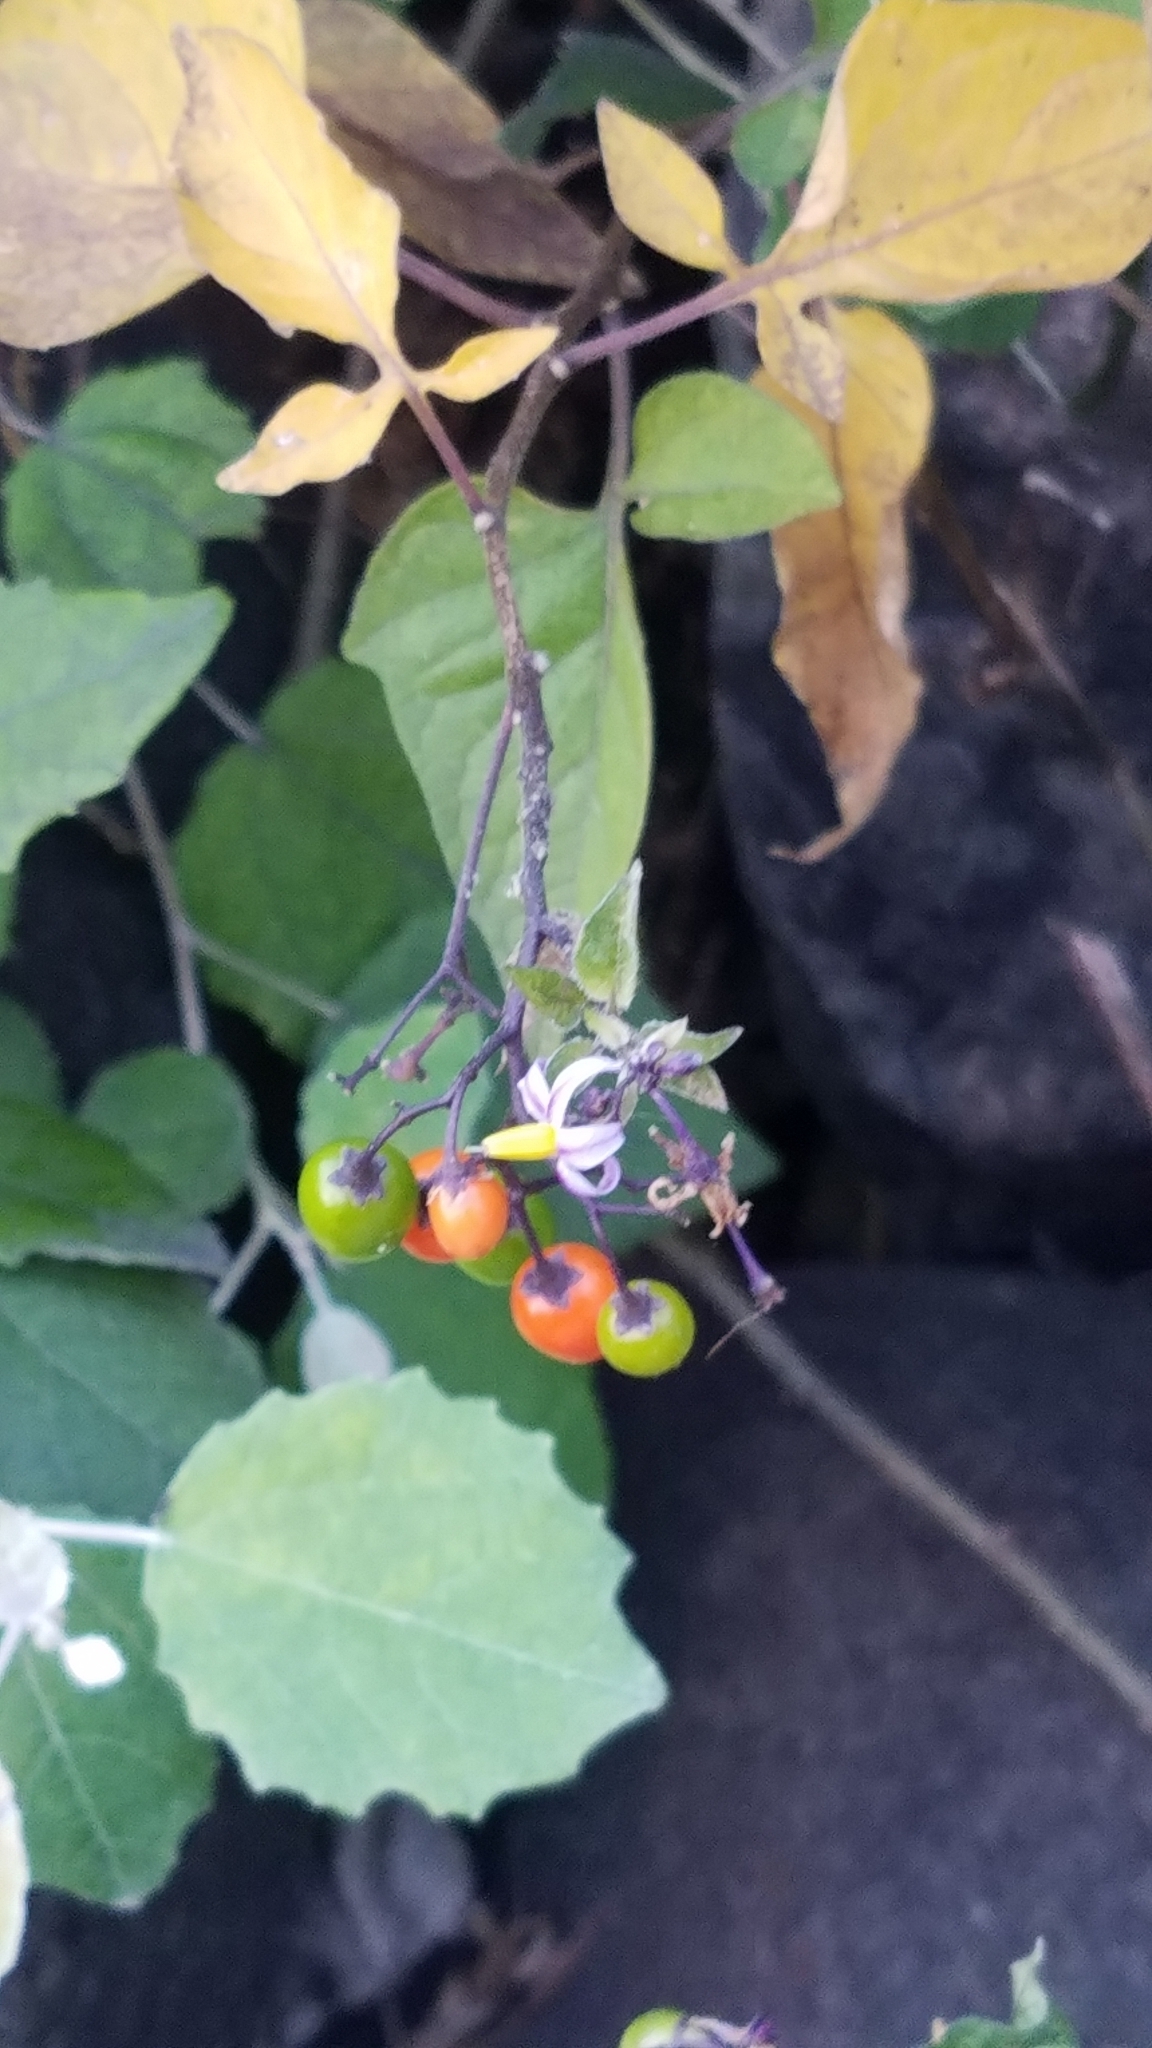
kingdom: Plantae
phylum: Tracheophyta
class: Magnoliopsida
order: Solanales
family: Solanaceae
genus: Solanum
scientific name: Solanum dulcamara
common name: Climbing nightshade
